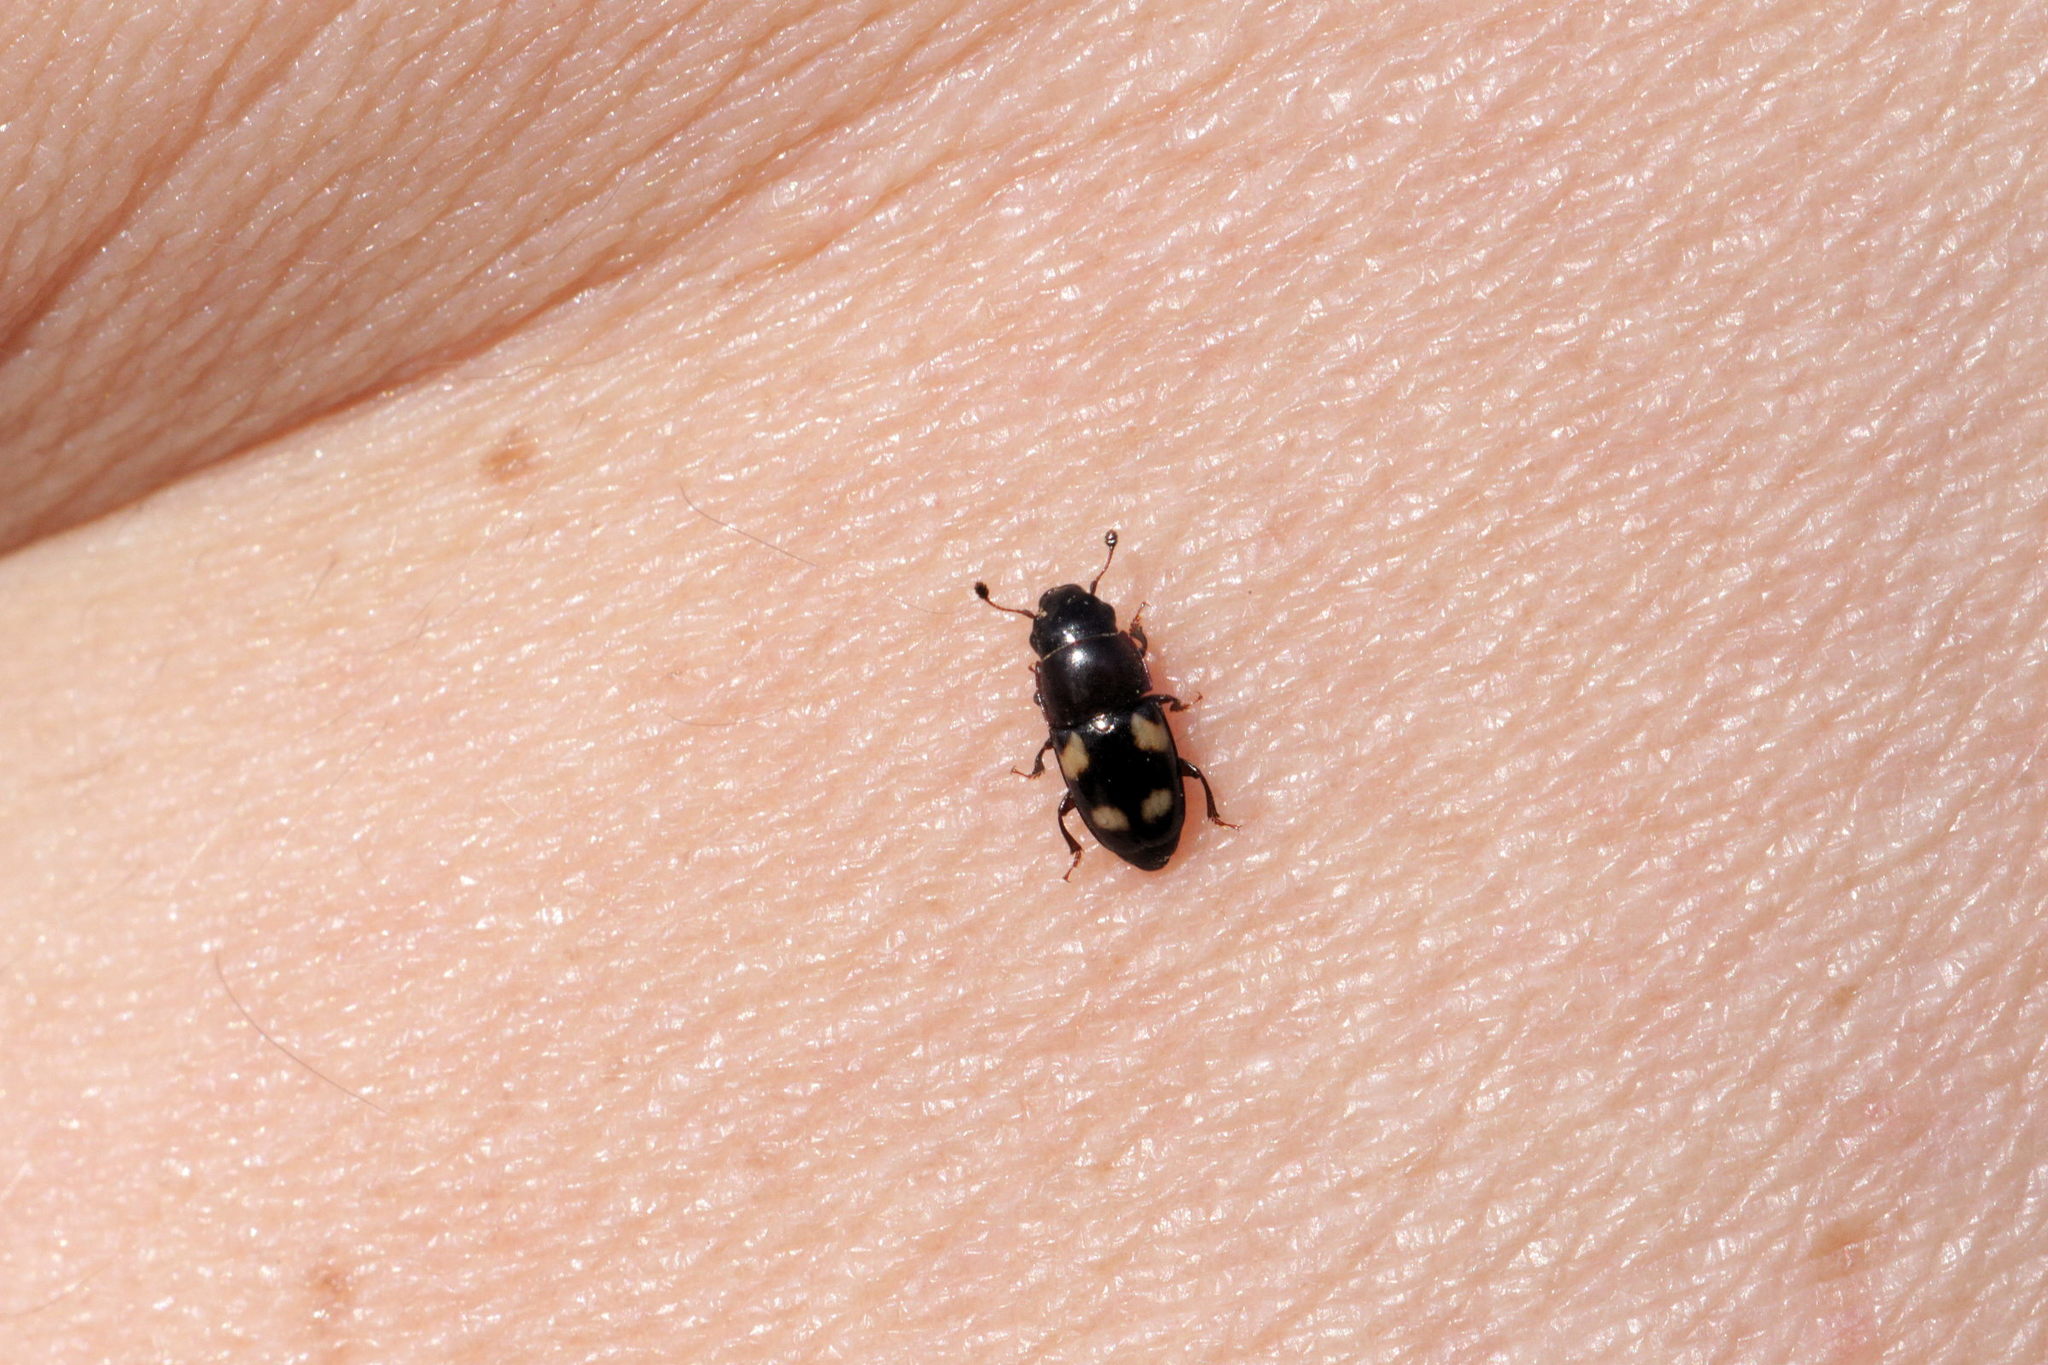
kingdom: Animalia
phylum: Arthropoda
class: Insecta
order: Coleoptera
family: Nitidulidae
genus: Glischrochilus
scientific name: Glischrochilus quadrisignatus
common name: Picnic beetle
